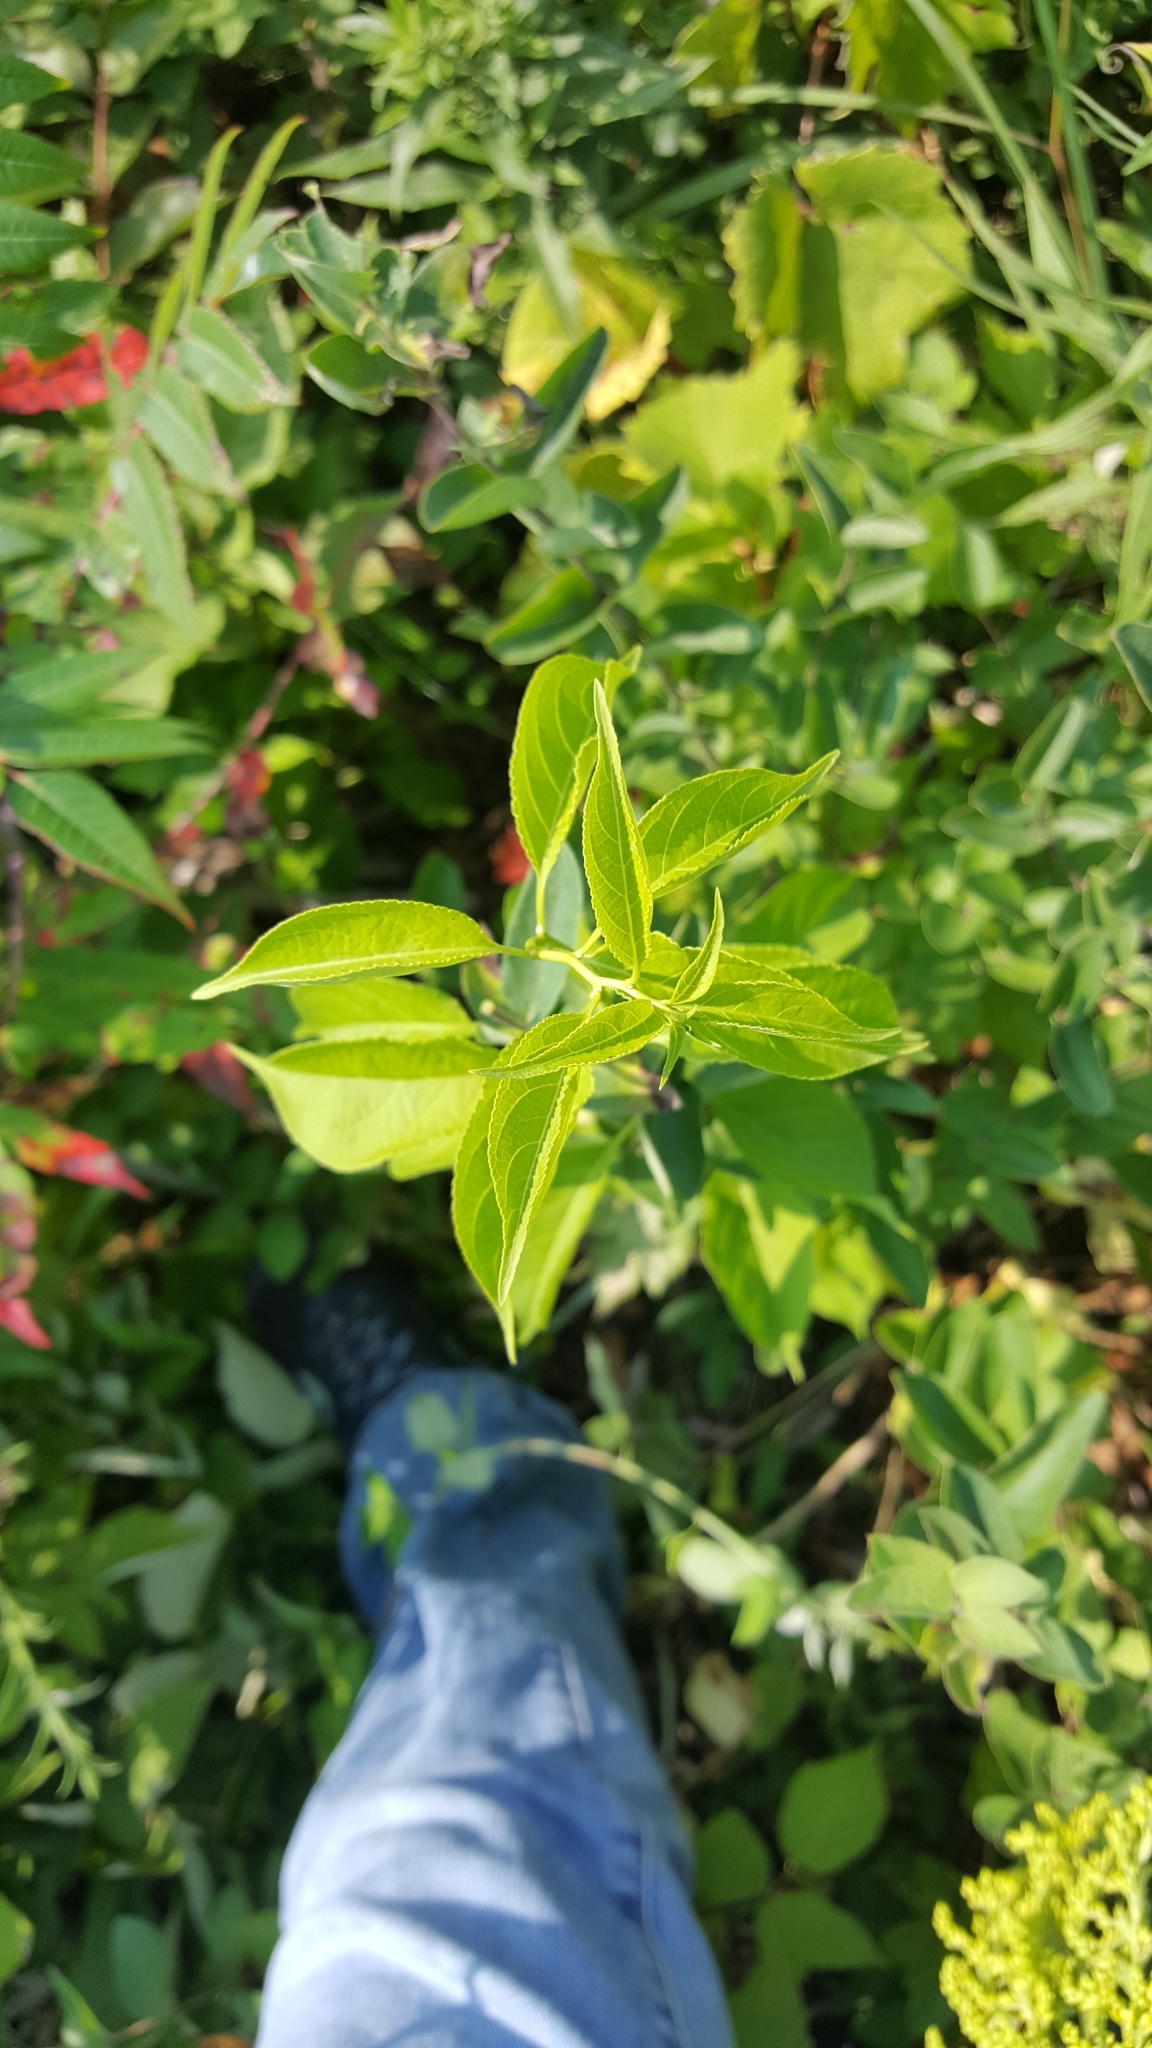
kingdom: Plantae
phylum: Tracheophyta
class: Magnoliopsida
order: Celastrales
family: Celastraceae
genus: Celastrus
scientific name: Celastrus scandens
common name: American bittersweet
